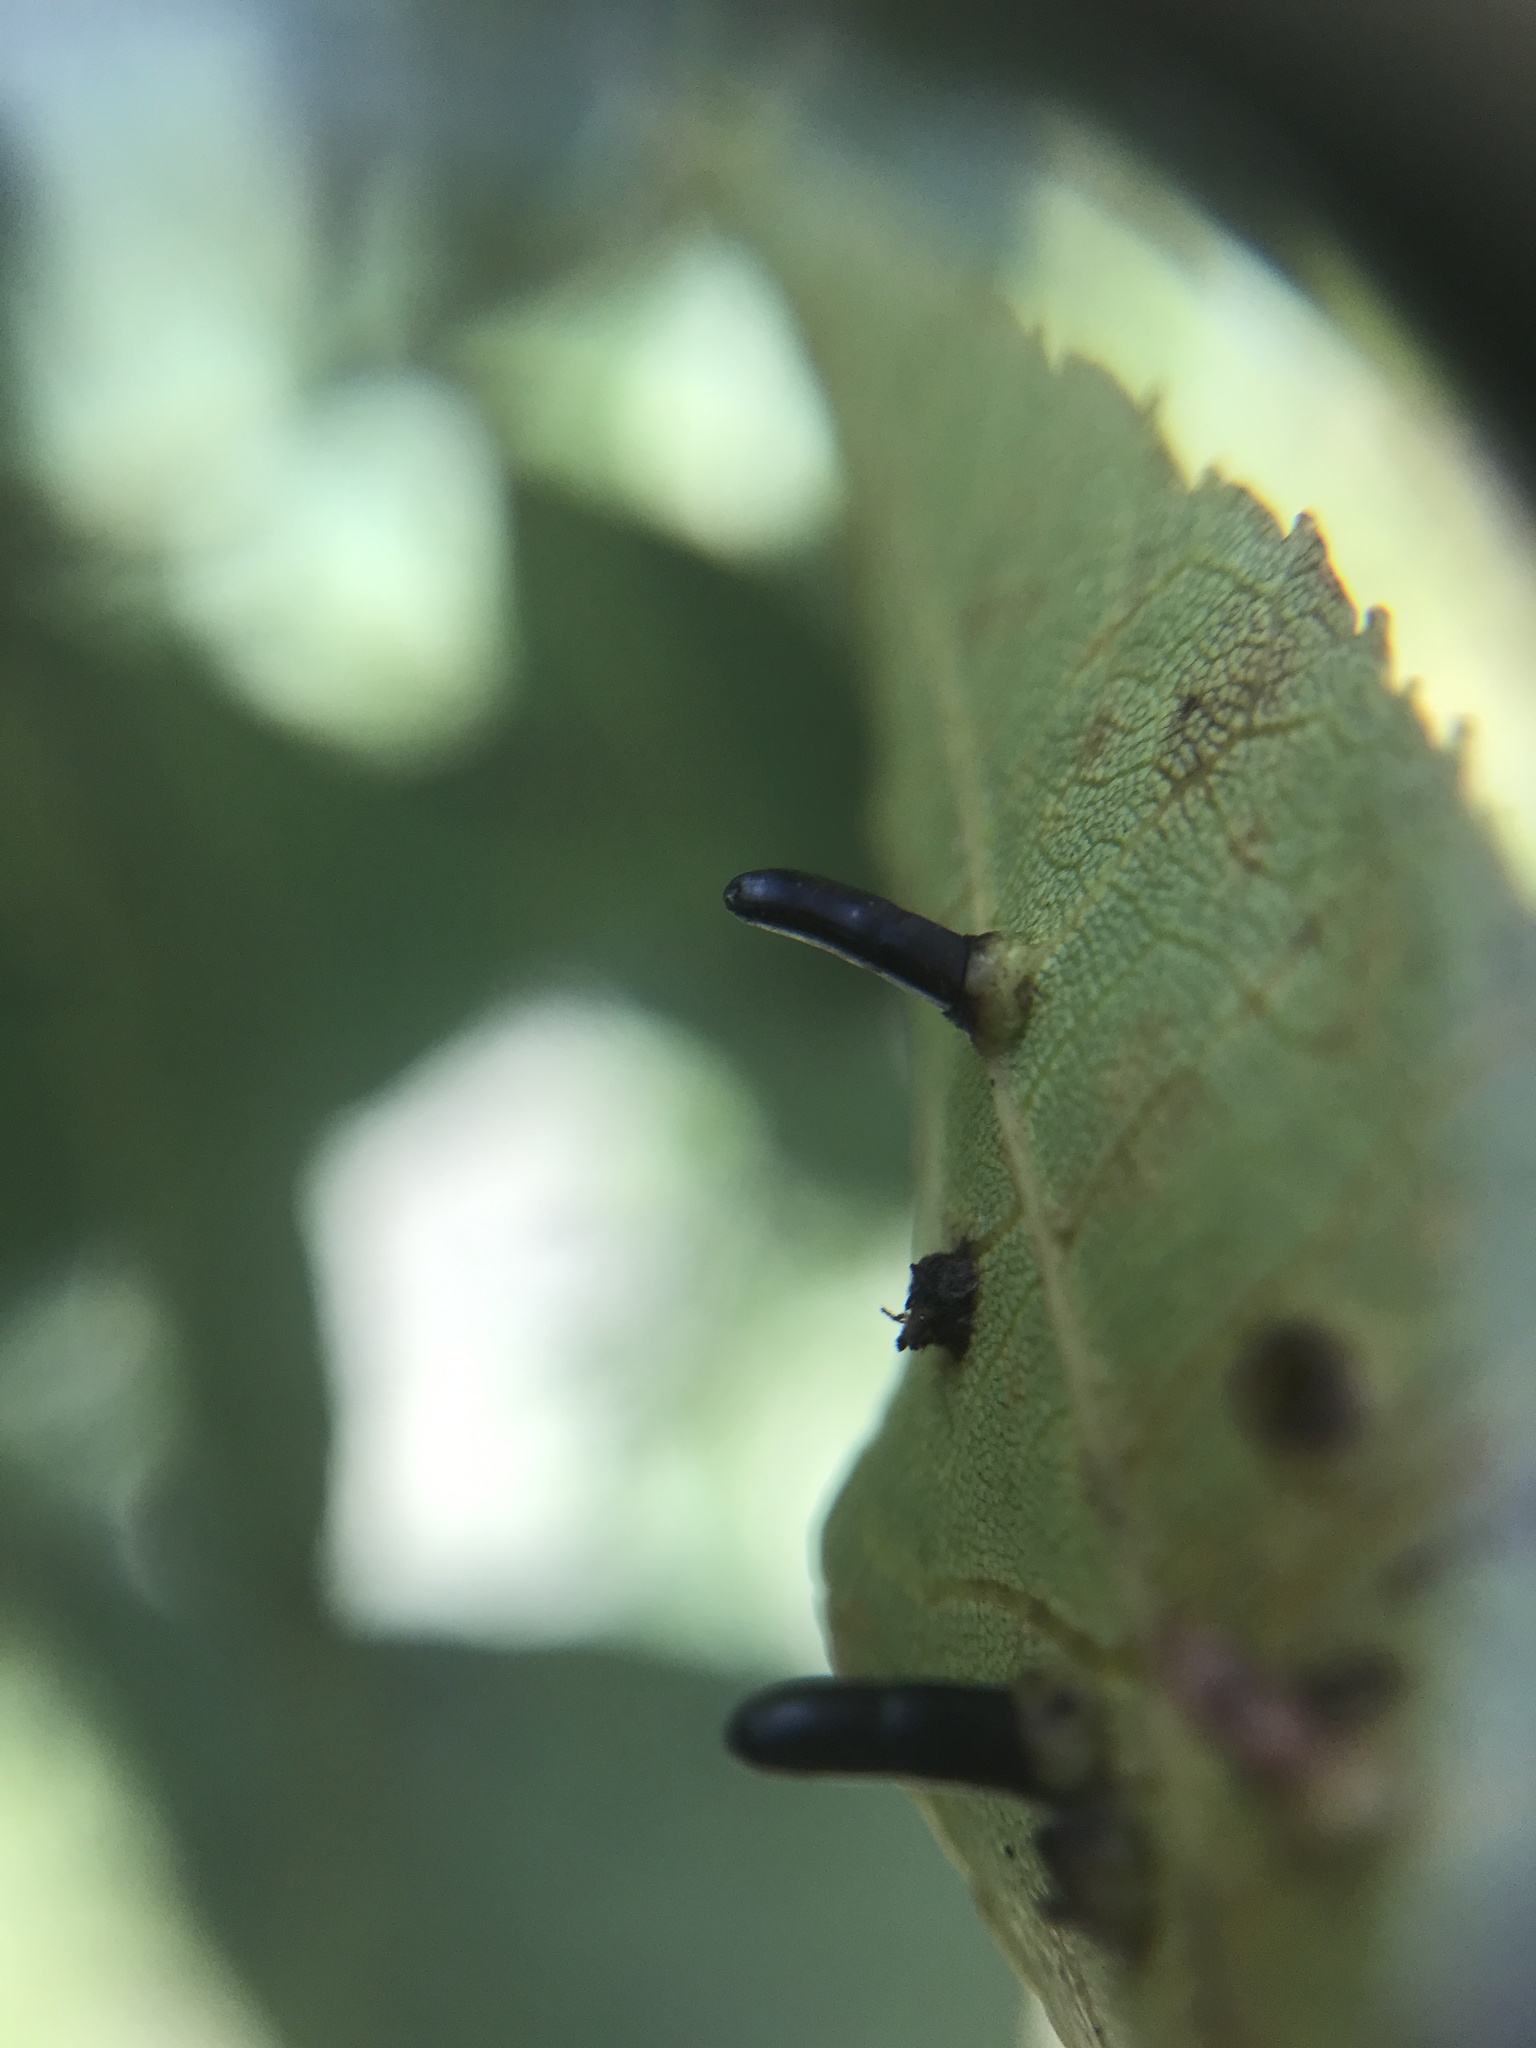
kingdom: Animalia
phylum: Arthropoda
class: Insecta
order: Diptera
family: Cecidomyiidae
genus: Caryomyia
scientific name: Caryomyia tubicola
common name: Hickory bullet gall midge
